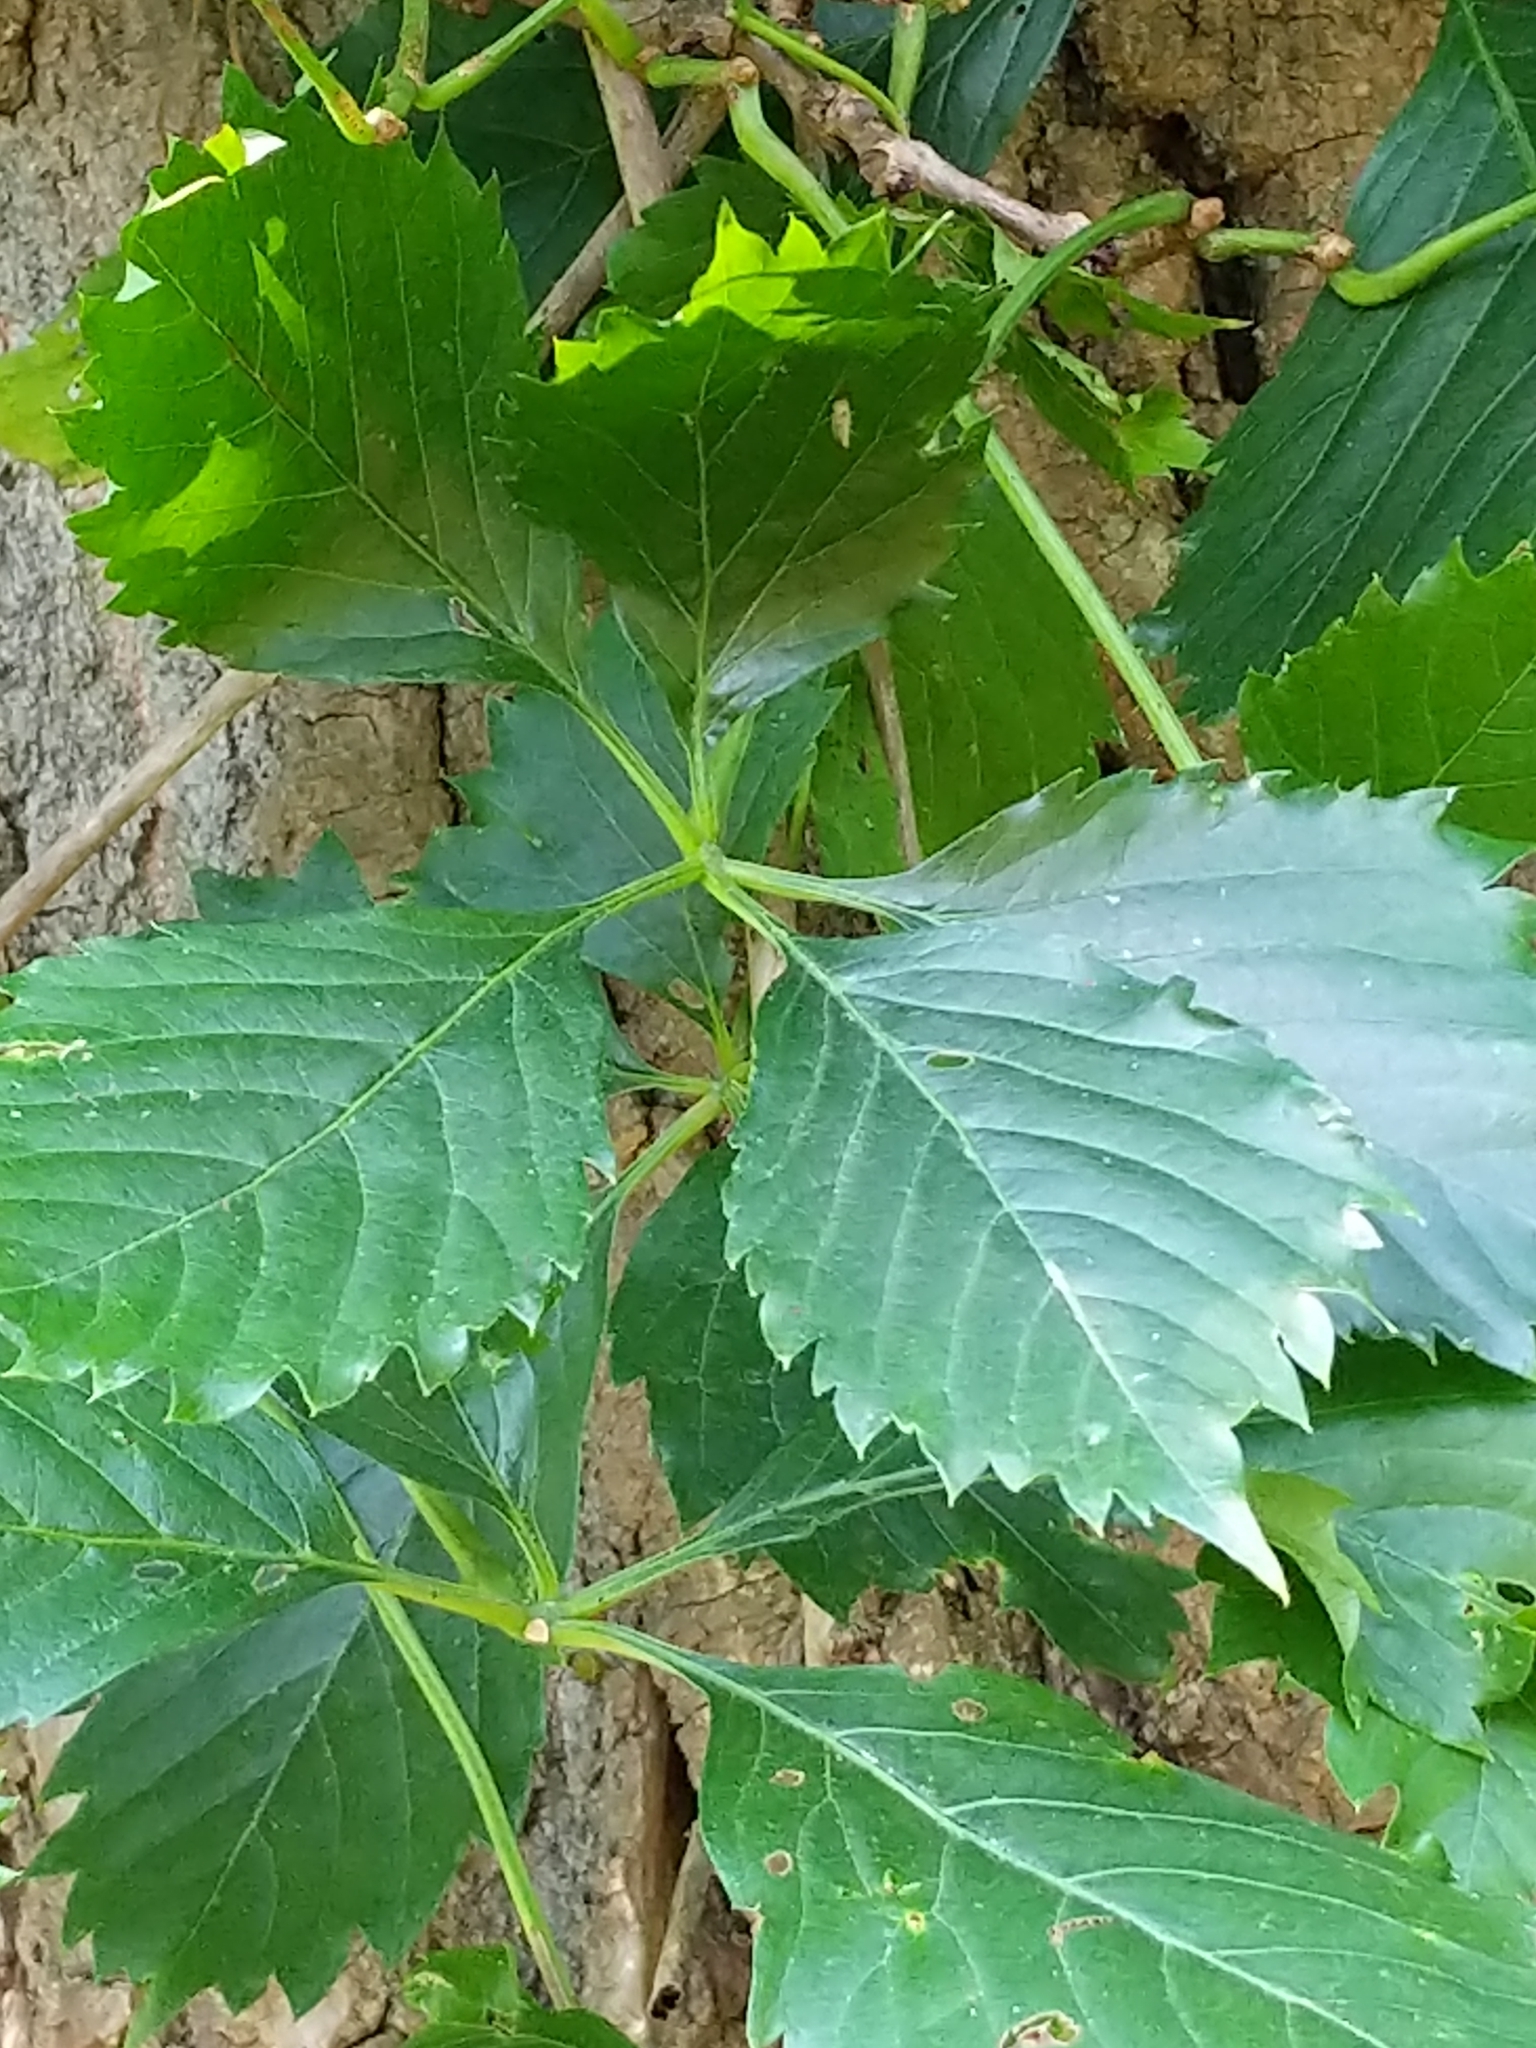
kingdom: Plantae
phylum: Tracheophyta
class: Magnoliopsida
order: Vitales
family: Vitaceae
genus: Parthenocissus
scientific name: Parthenocissus inserta
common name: False virginia-creeper
